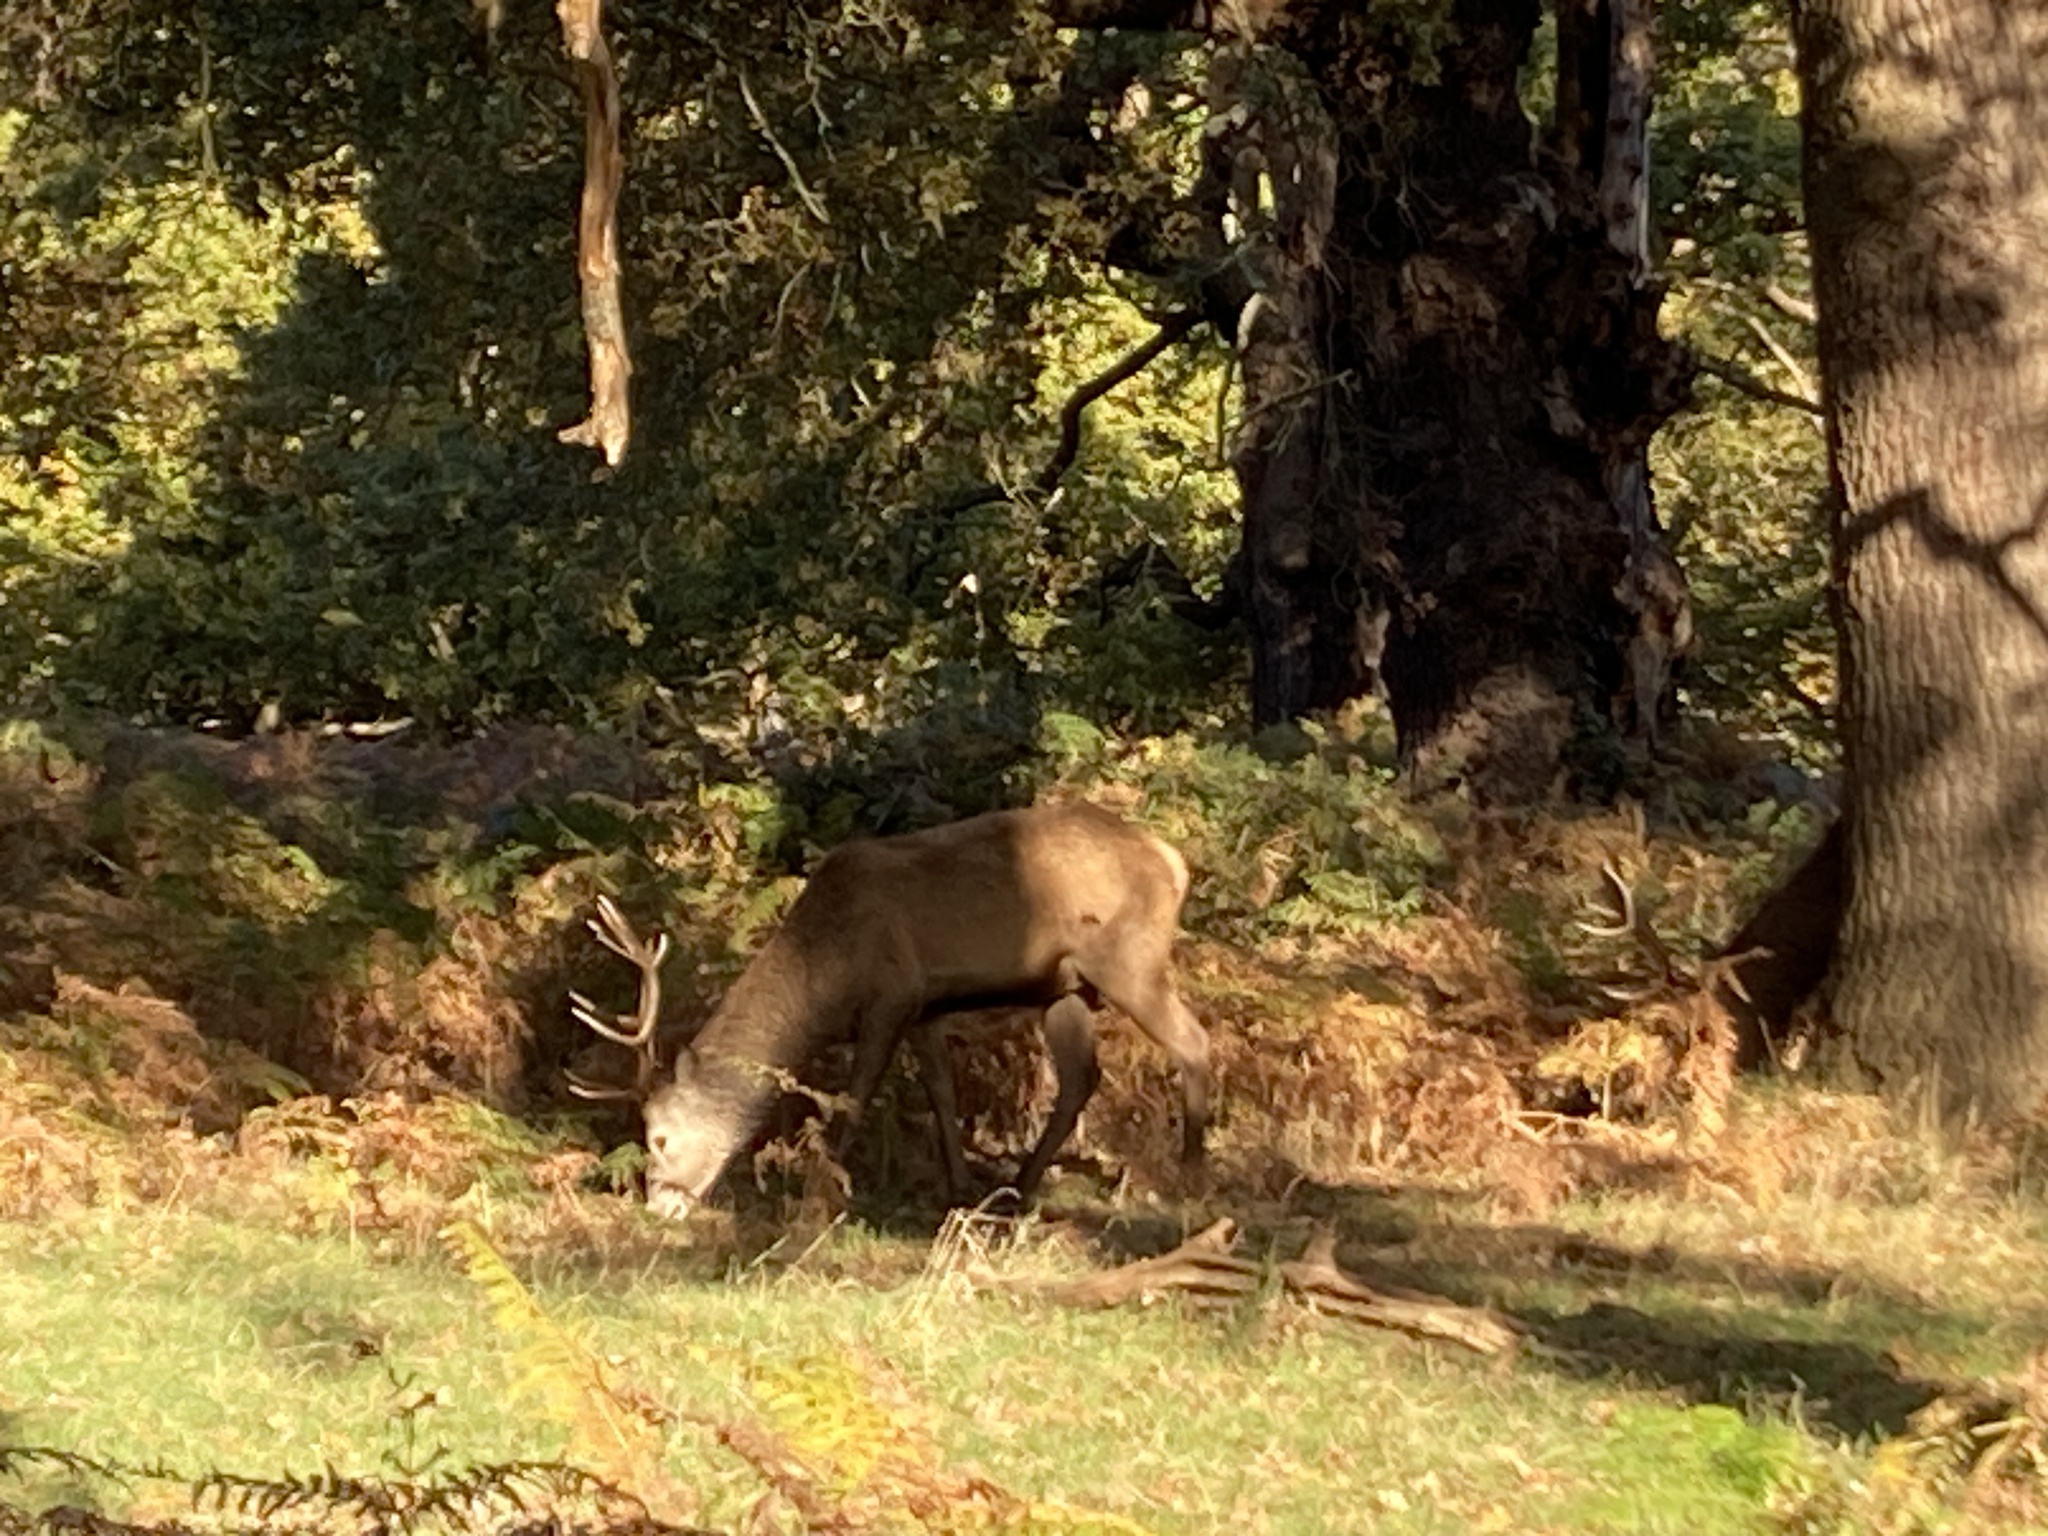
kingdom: Animalia
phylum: Chordata
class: Mammalia
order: Artiodactyla
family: Cervidae
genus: Cervus
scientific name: Cervus elaphus
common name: Red deer
